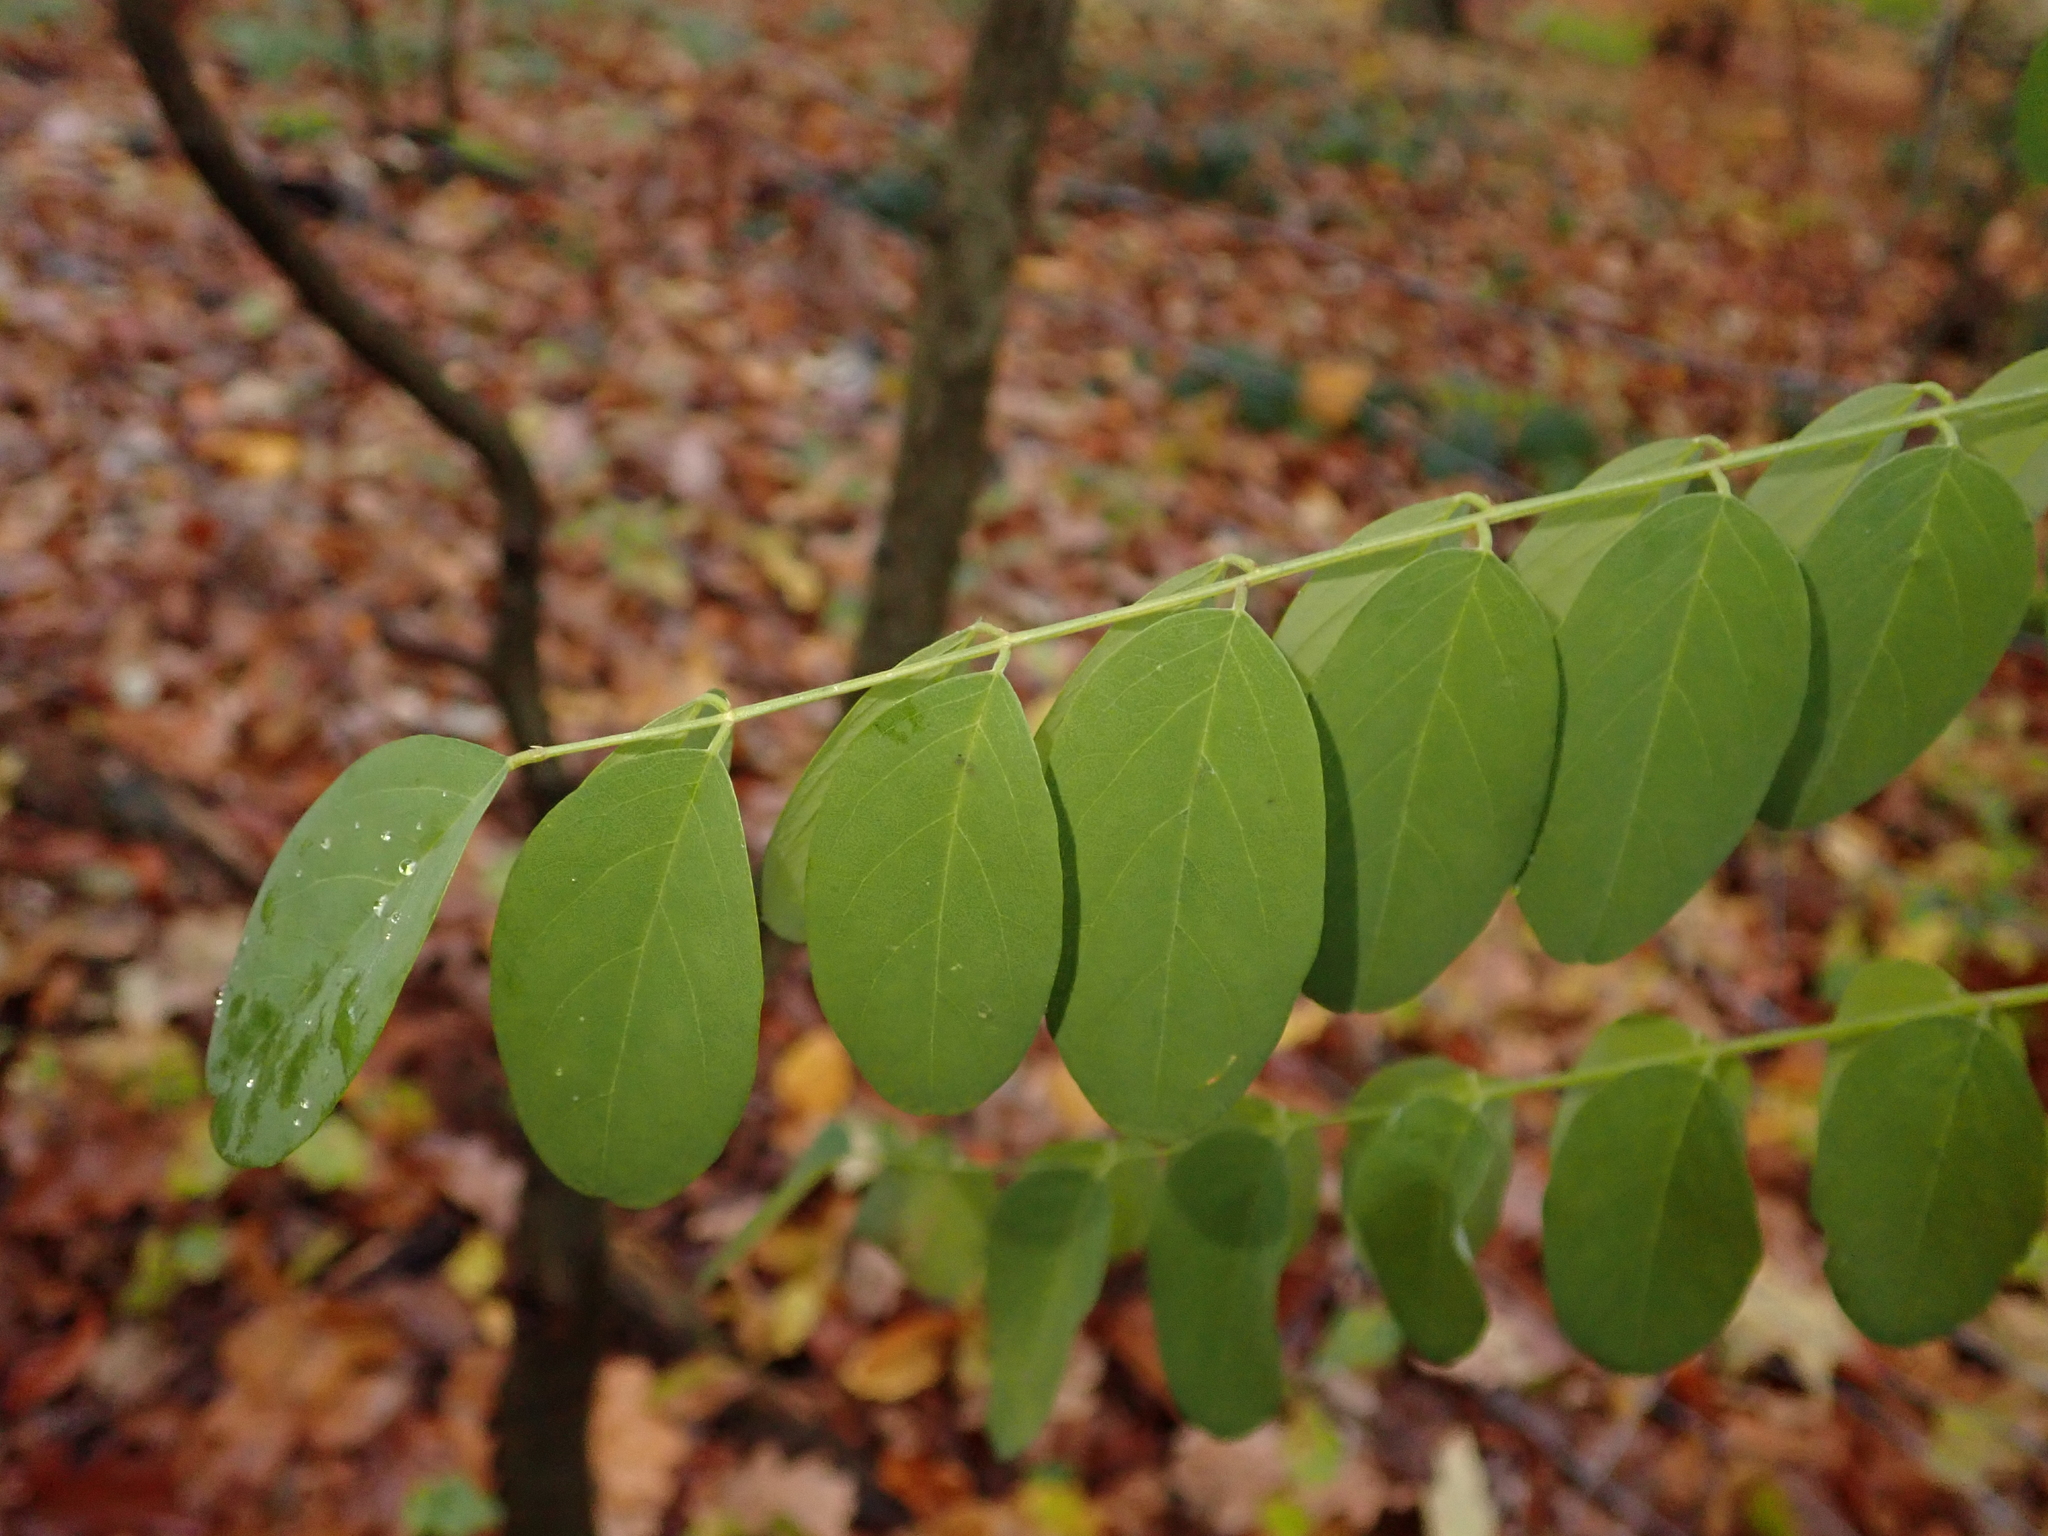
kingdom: Plantae
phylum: Tracheophyta
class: Magnoliopsida
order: Fabales
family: Fabaceae
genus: Robinia
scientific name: Robinia pseudoacacia
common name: Black locust
